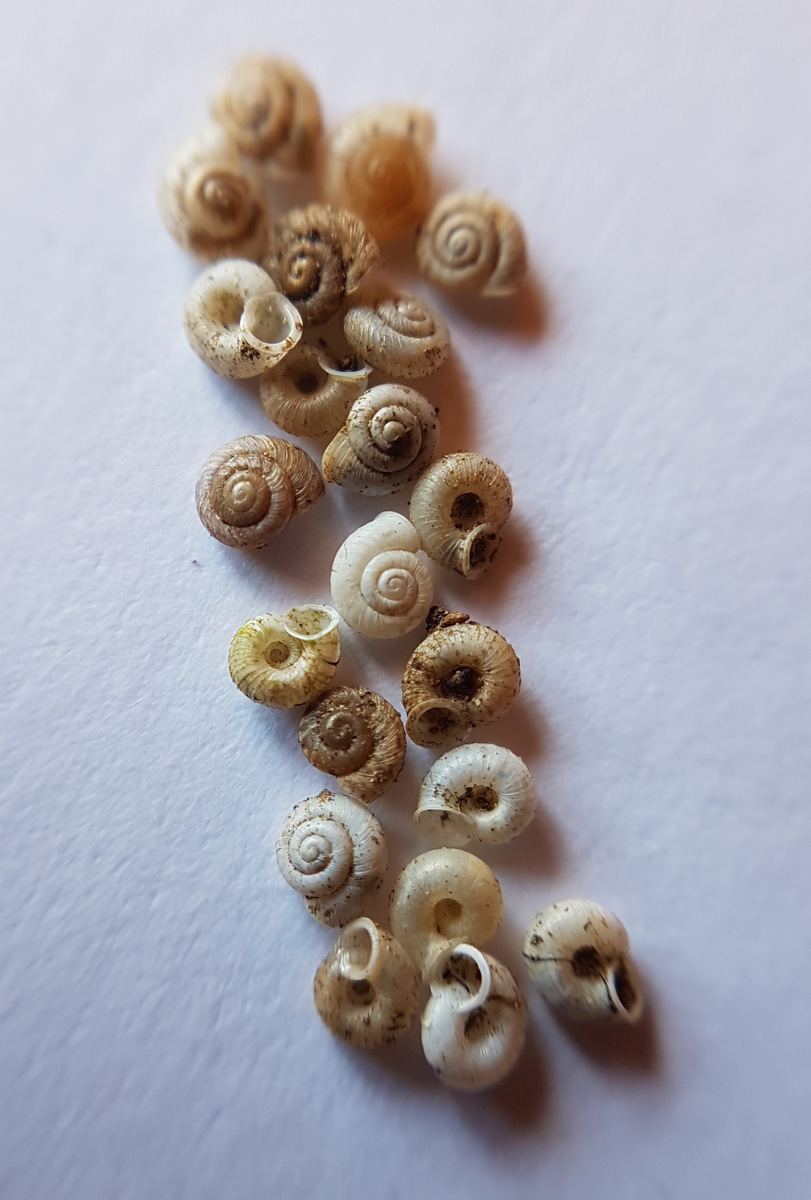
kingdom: Animalia
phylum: Mollusca
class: Gastropoda
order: Stylommatophora
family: Valloniidae
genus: Vallonia
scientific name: Vallonia costata
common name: Ribbed grass snail
